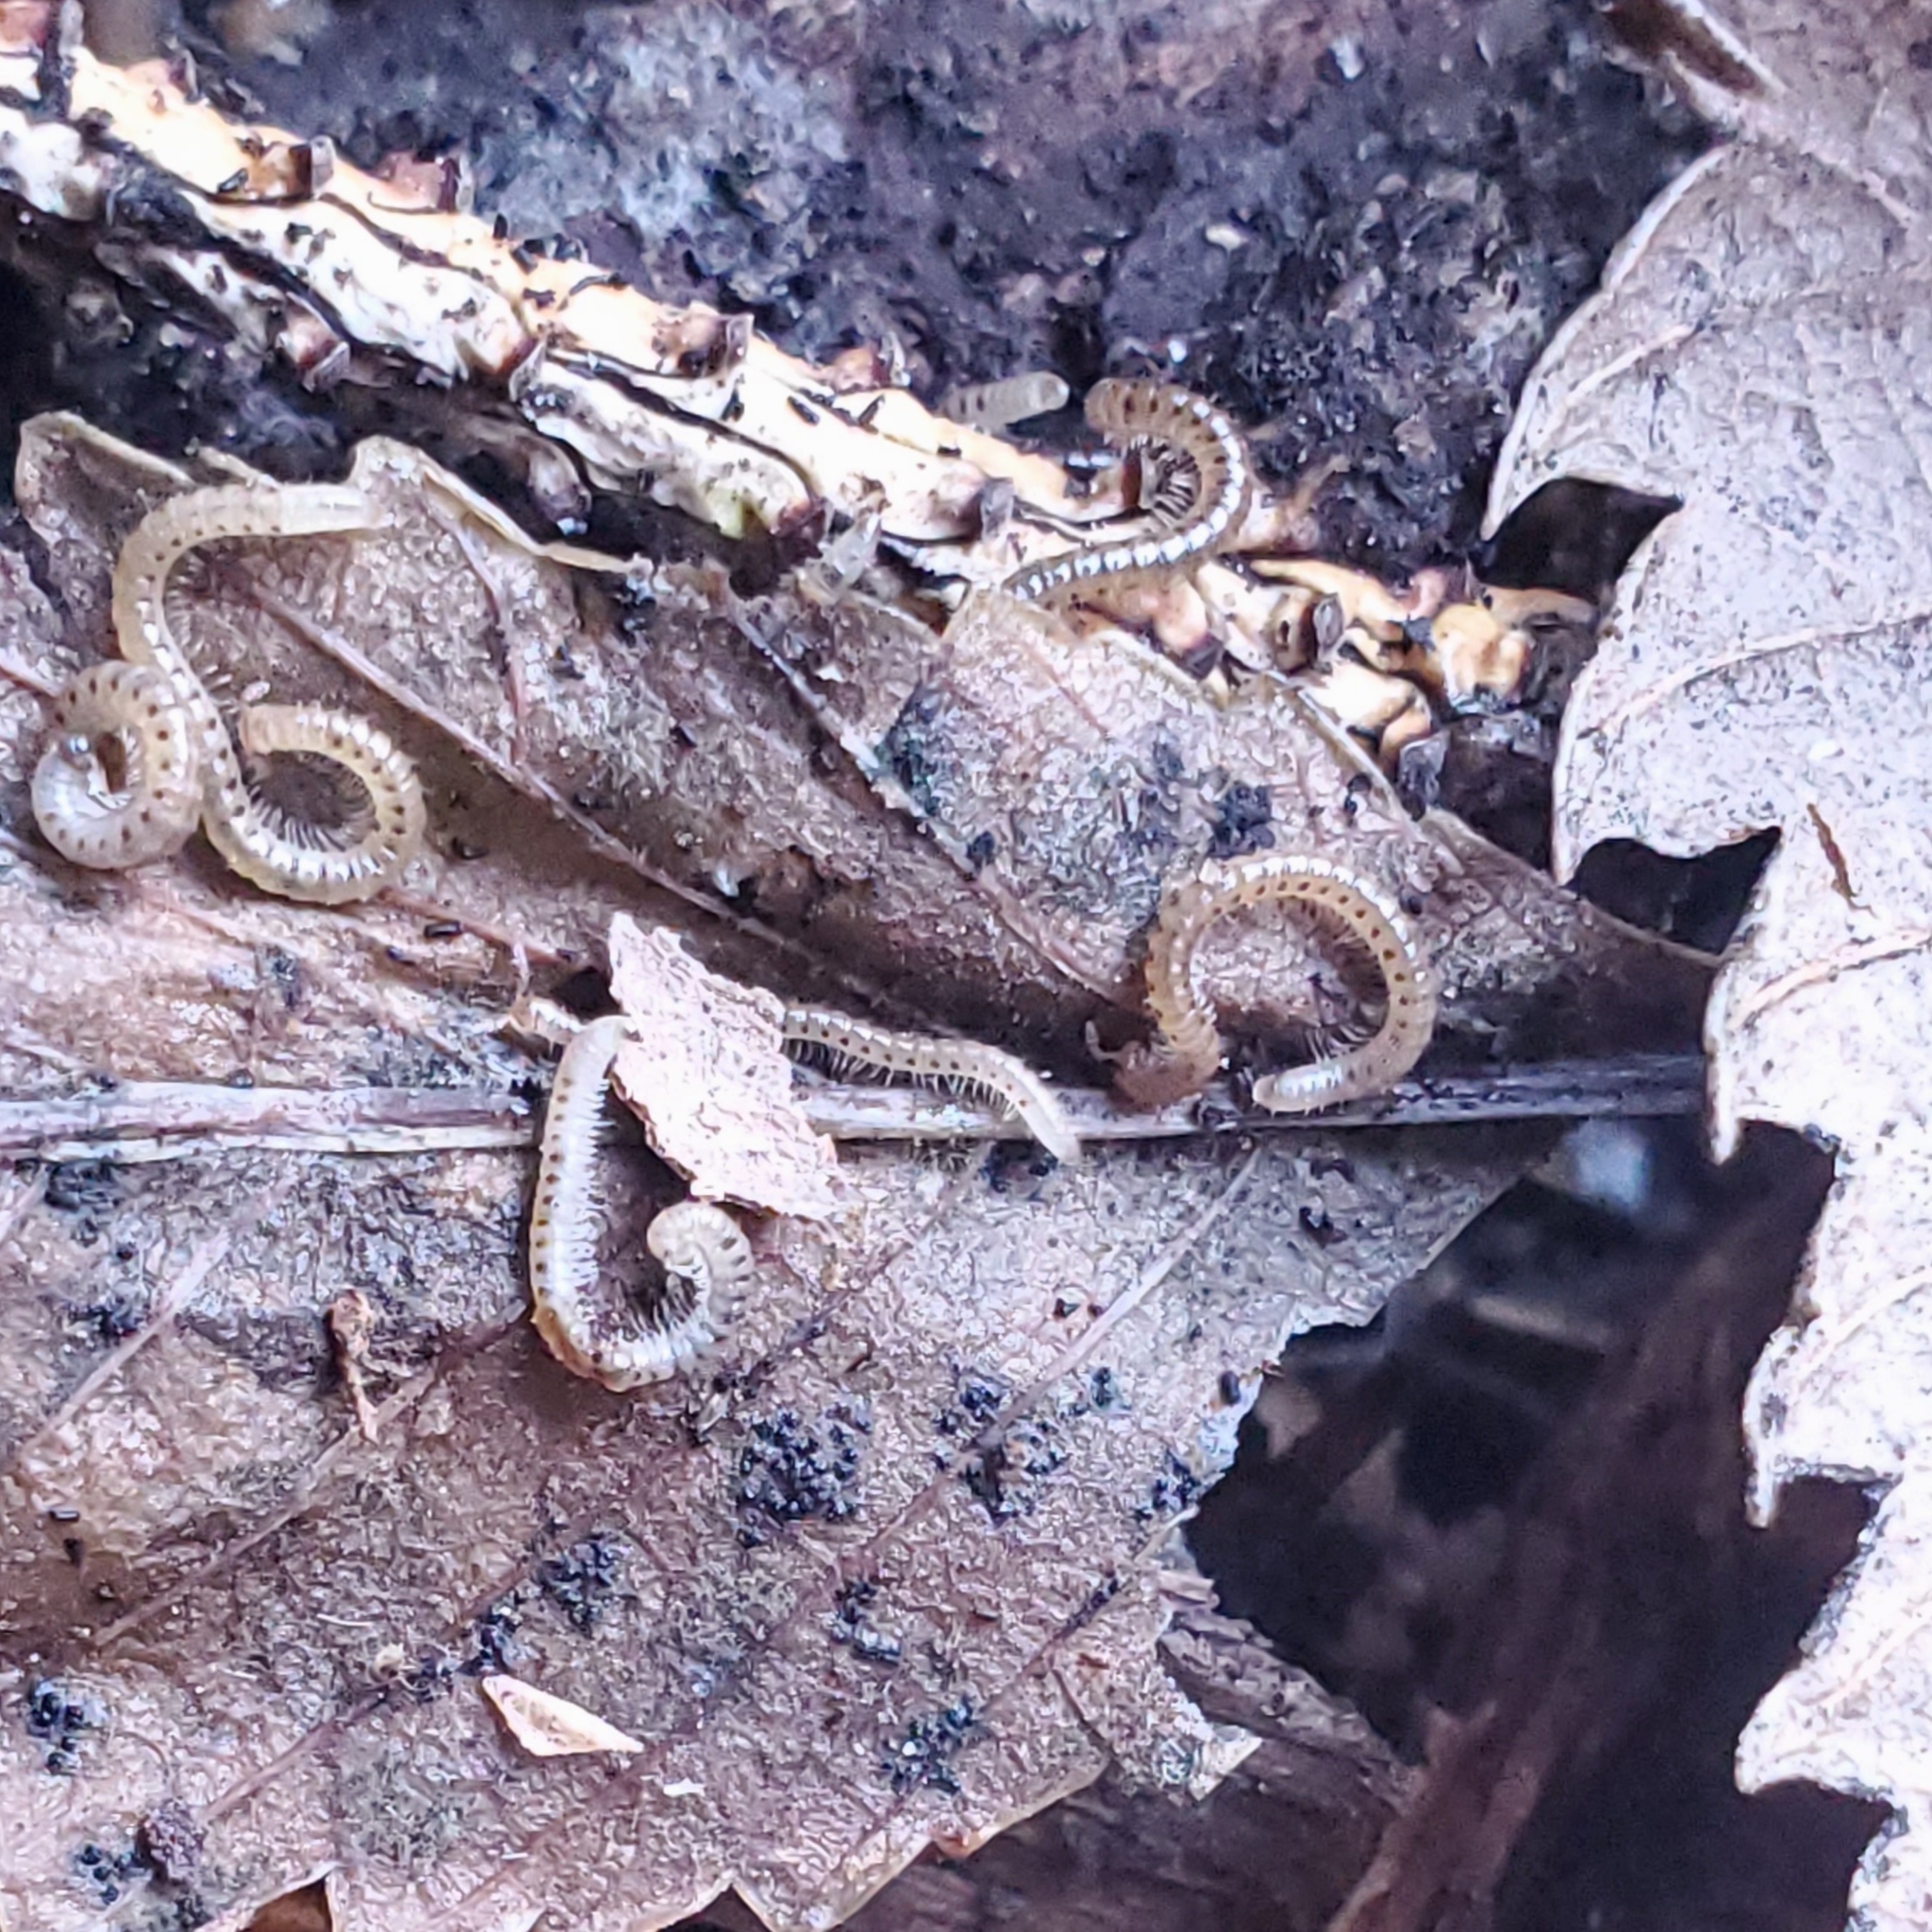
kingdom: Animalia
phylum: Arthropoda
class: Diplopoda
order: Julida
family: Blaniulidae
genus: Blaniulus
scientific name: Blaniulus guttulatus
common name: Spotted snake millipede
